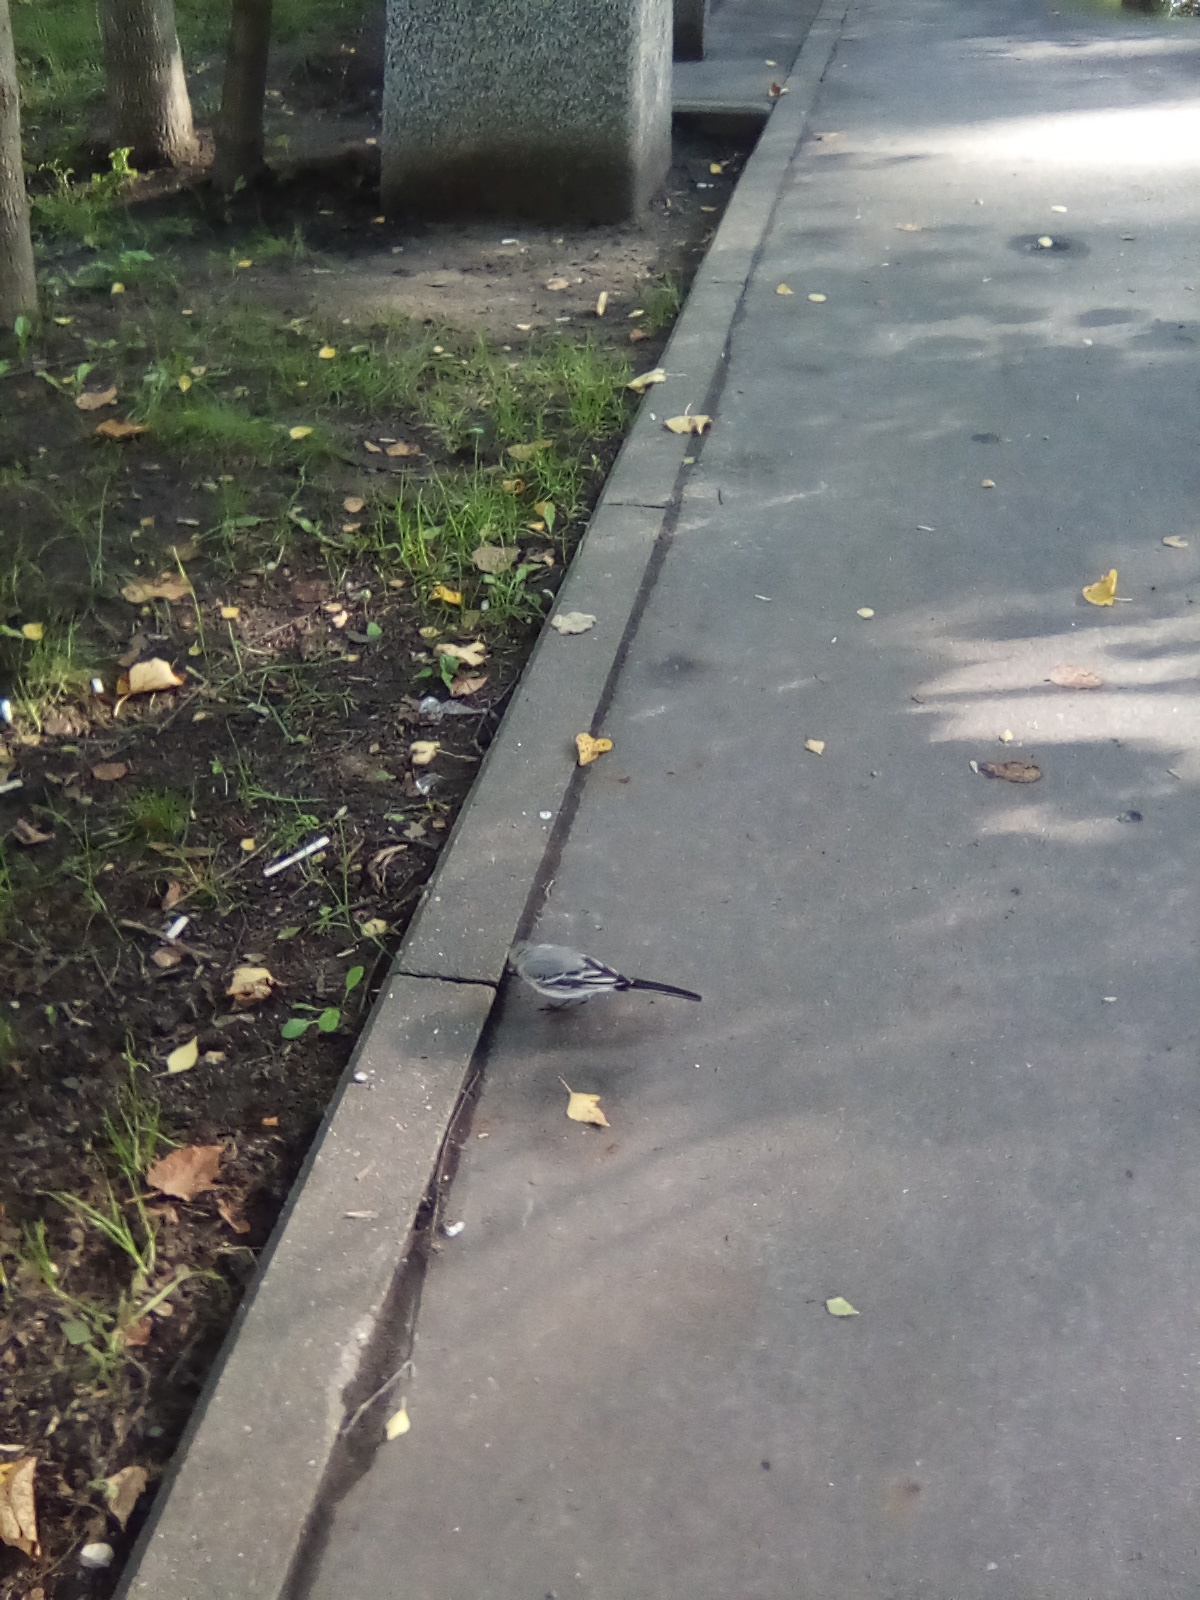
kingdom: Animalia
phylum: Chordata
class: Aves
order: Passeriformes
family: Motacillidae
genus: Motacilla
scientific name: Motacilla alba
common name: White wagtail
